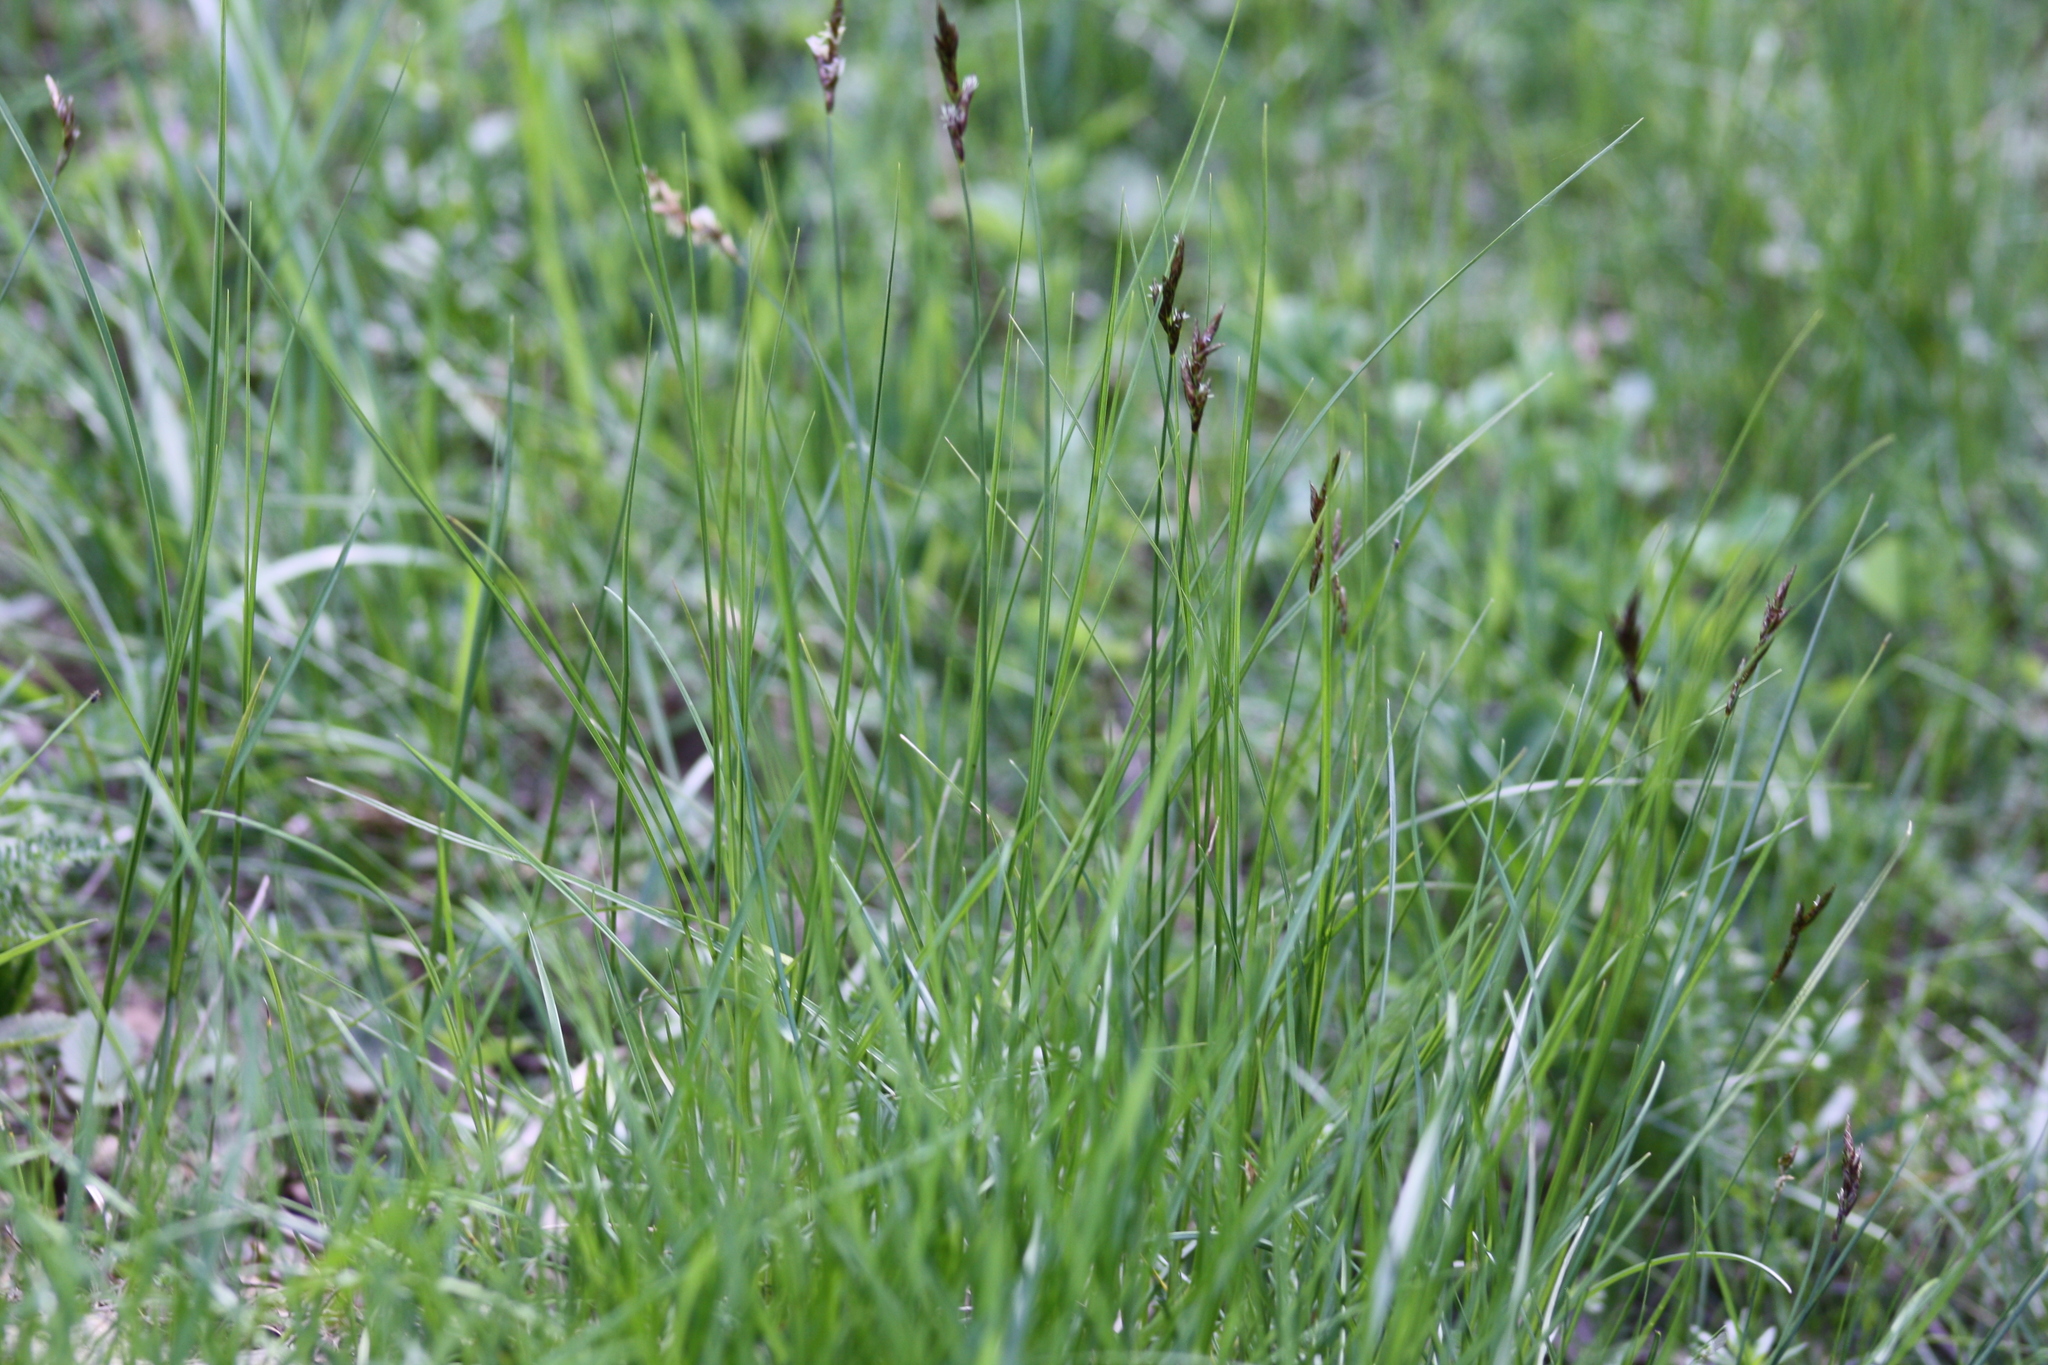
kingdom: Plantae
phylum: Tracheophyta
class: Liliopsida
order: Poales
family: Cyperaceae
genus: Carex
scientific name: Carex praecox
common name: Early sedge
